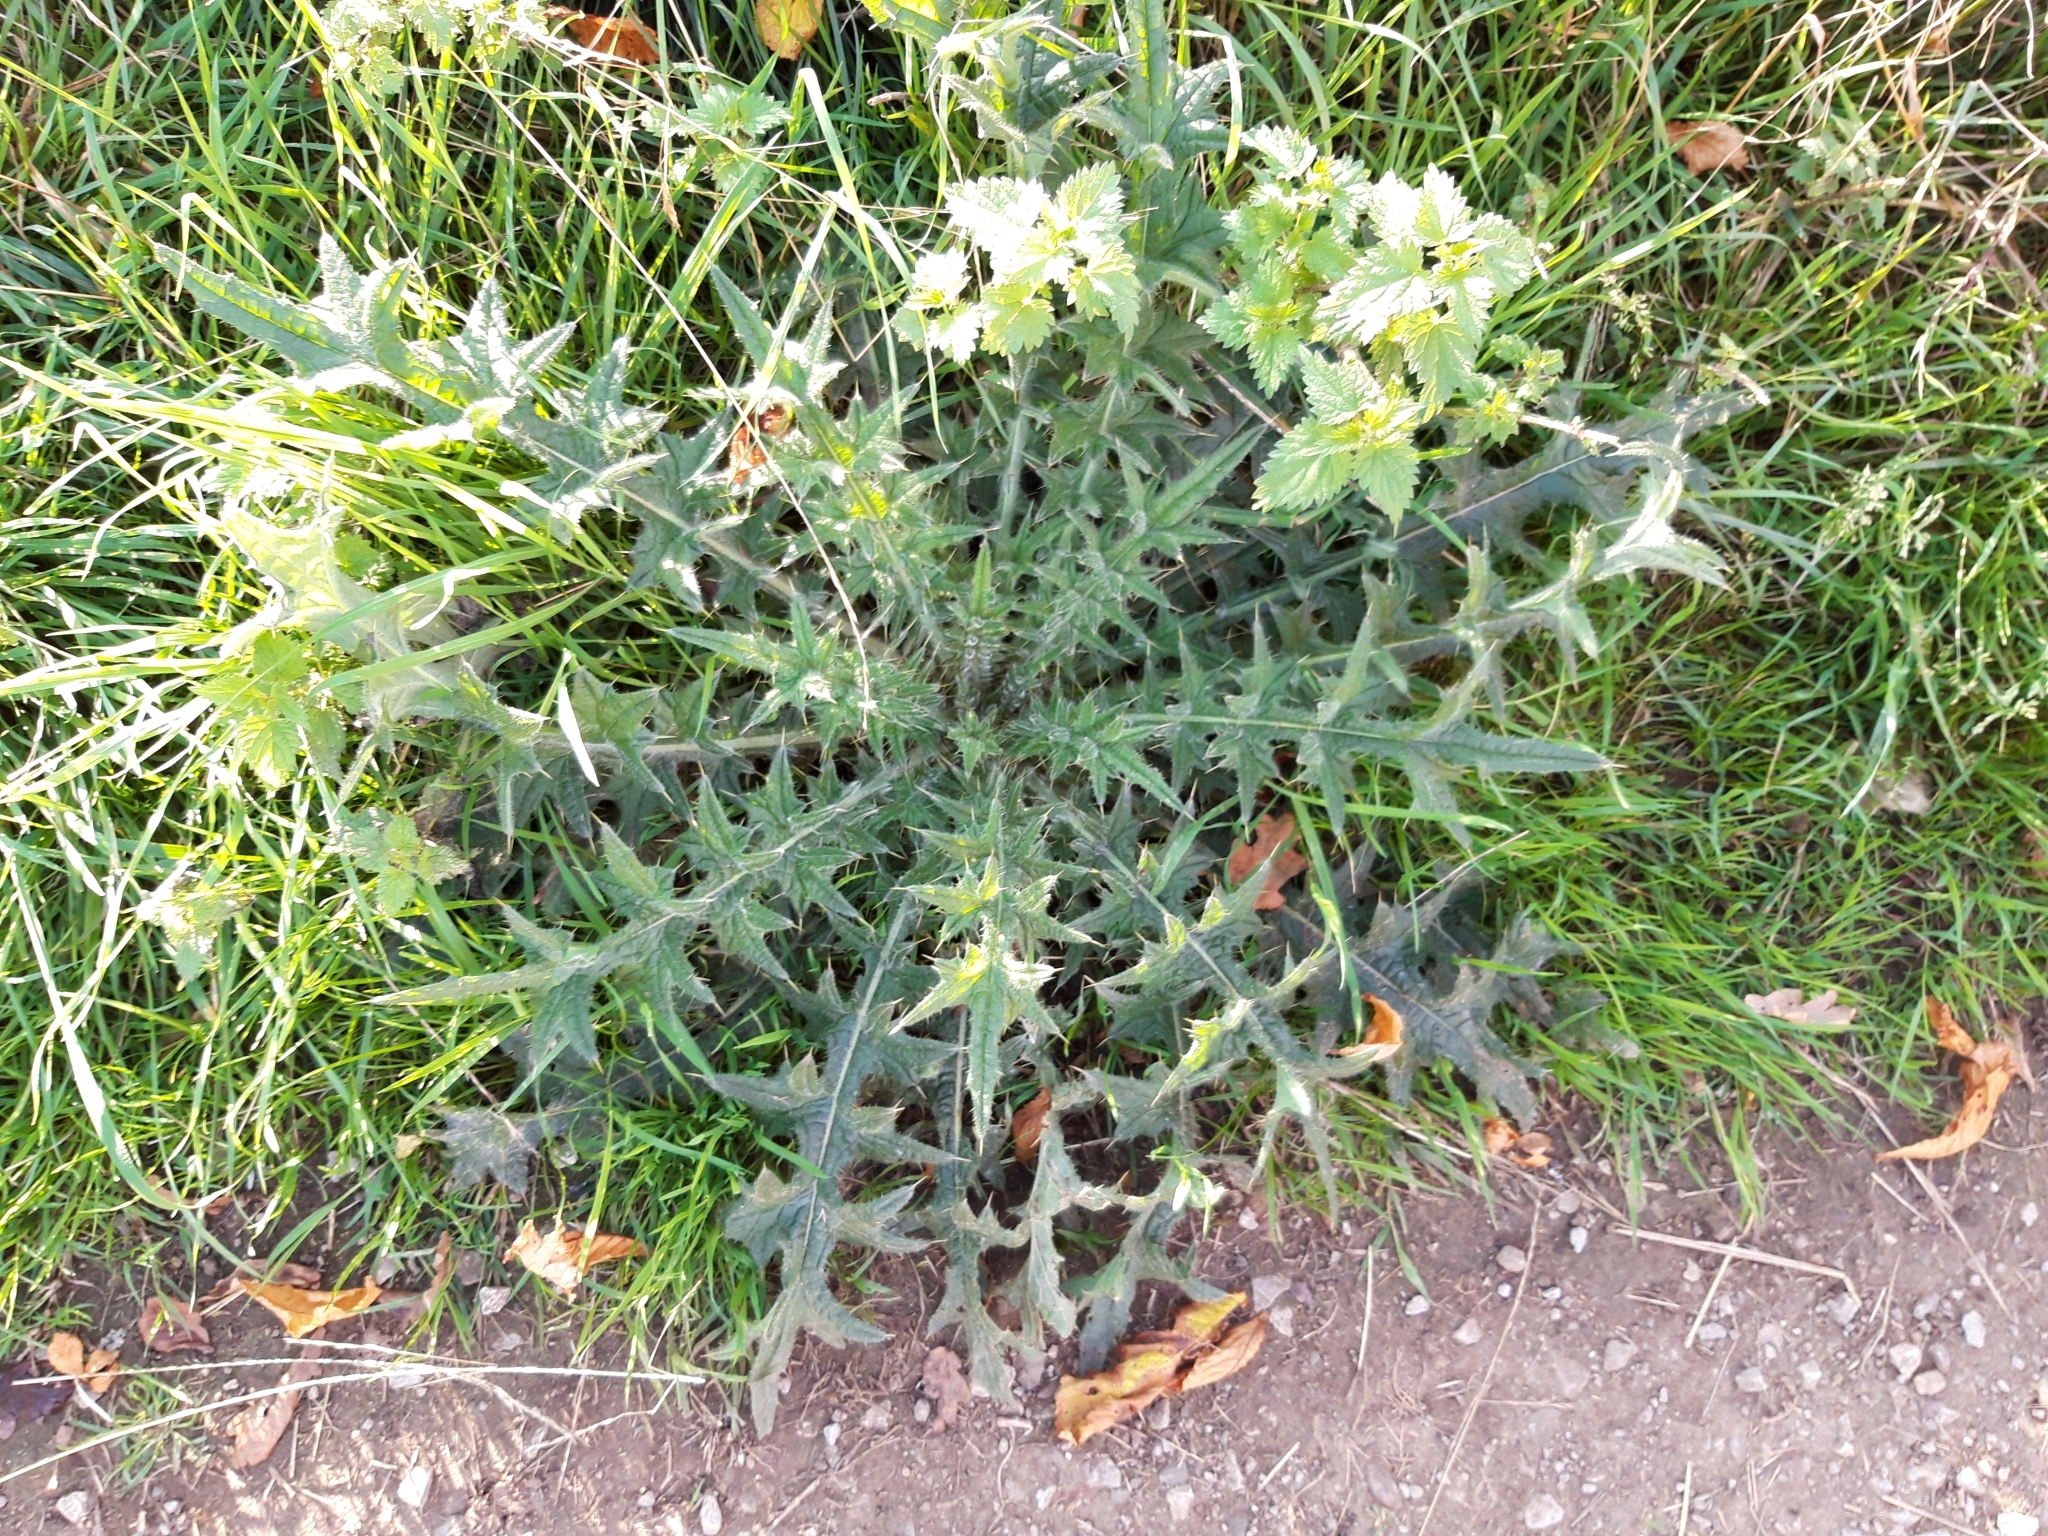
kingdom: Plantae
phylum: Tracheophyta
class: Magnoliopsida
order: Asterales
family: Asteraceae
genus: Cirsium
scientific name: Cirsium vulgare
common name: Bull thistle
